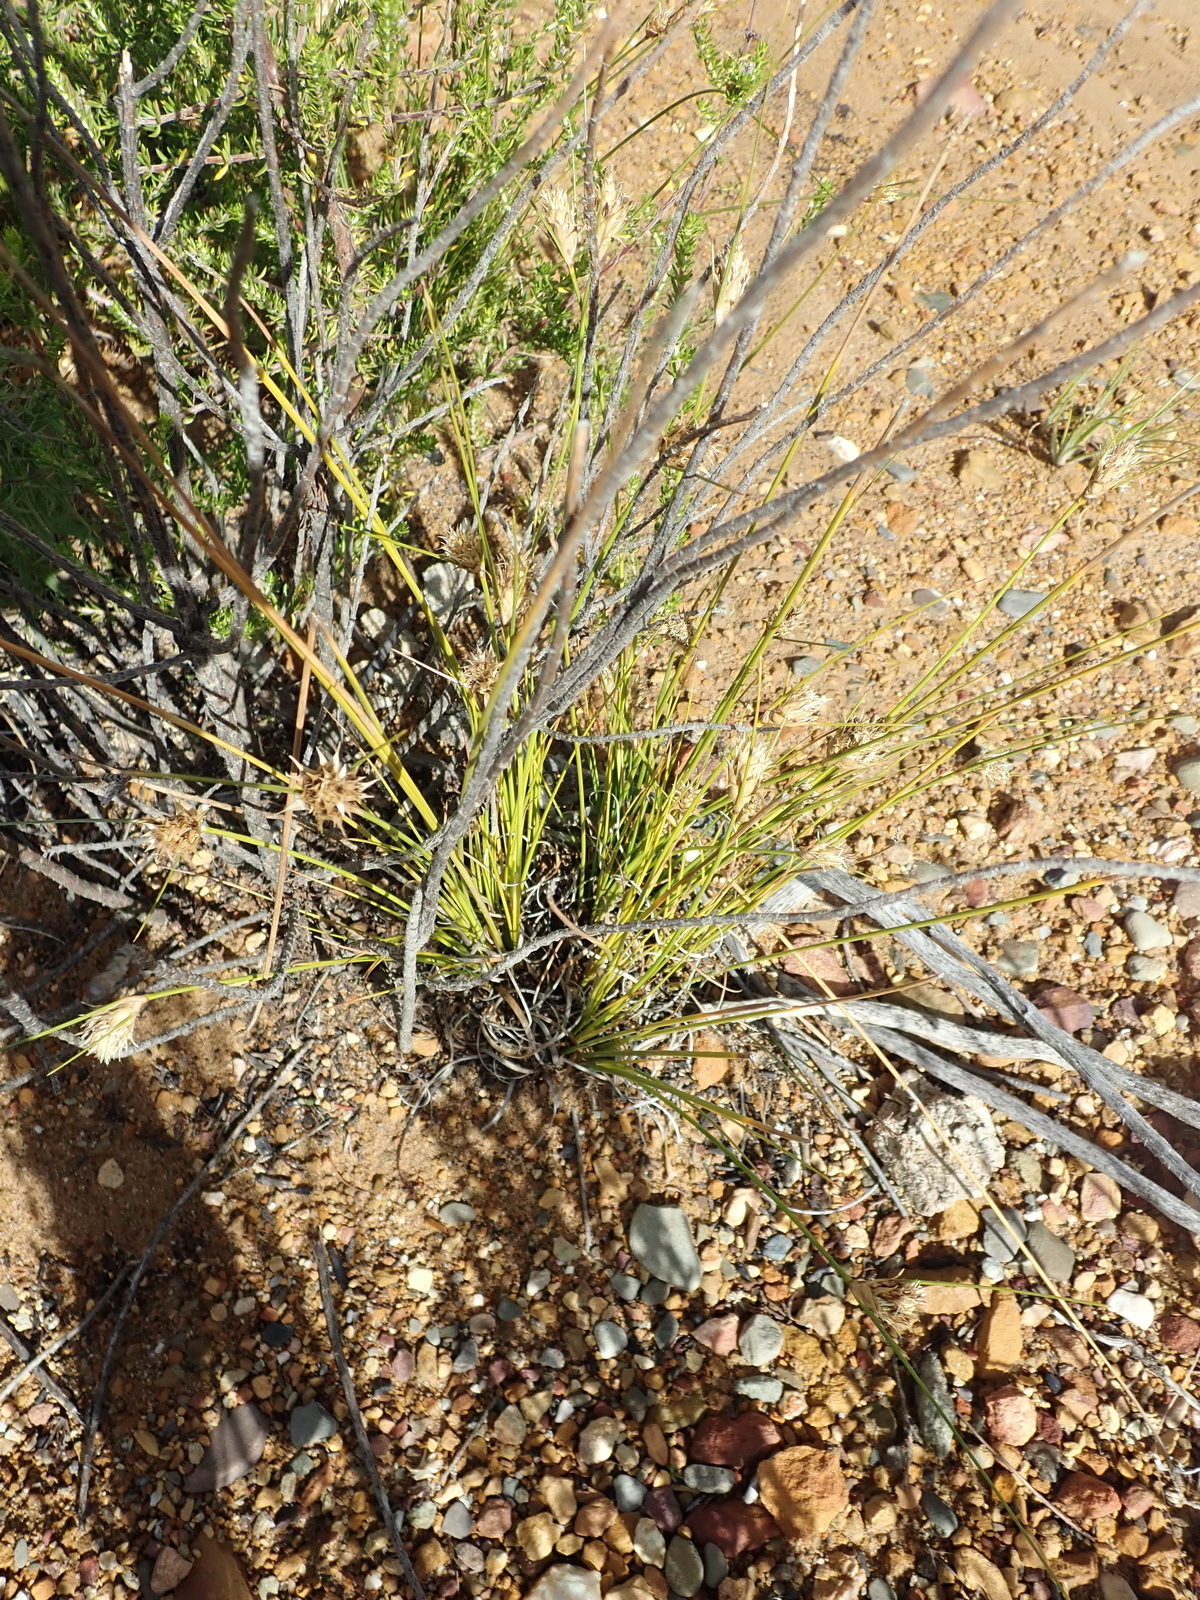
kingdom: Plantae
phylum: Tracheophyta
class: Liliopsida
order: Poales
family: Cyperaceae
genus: Ficinia
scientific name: Ficinia nigrescens
